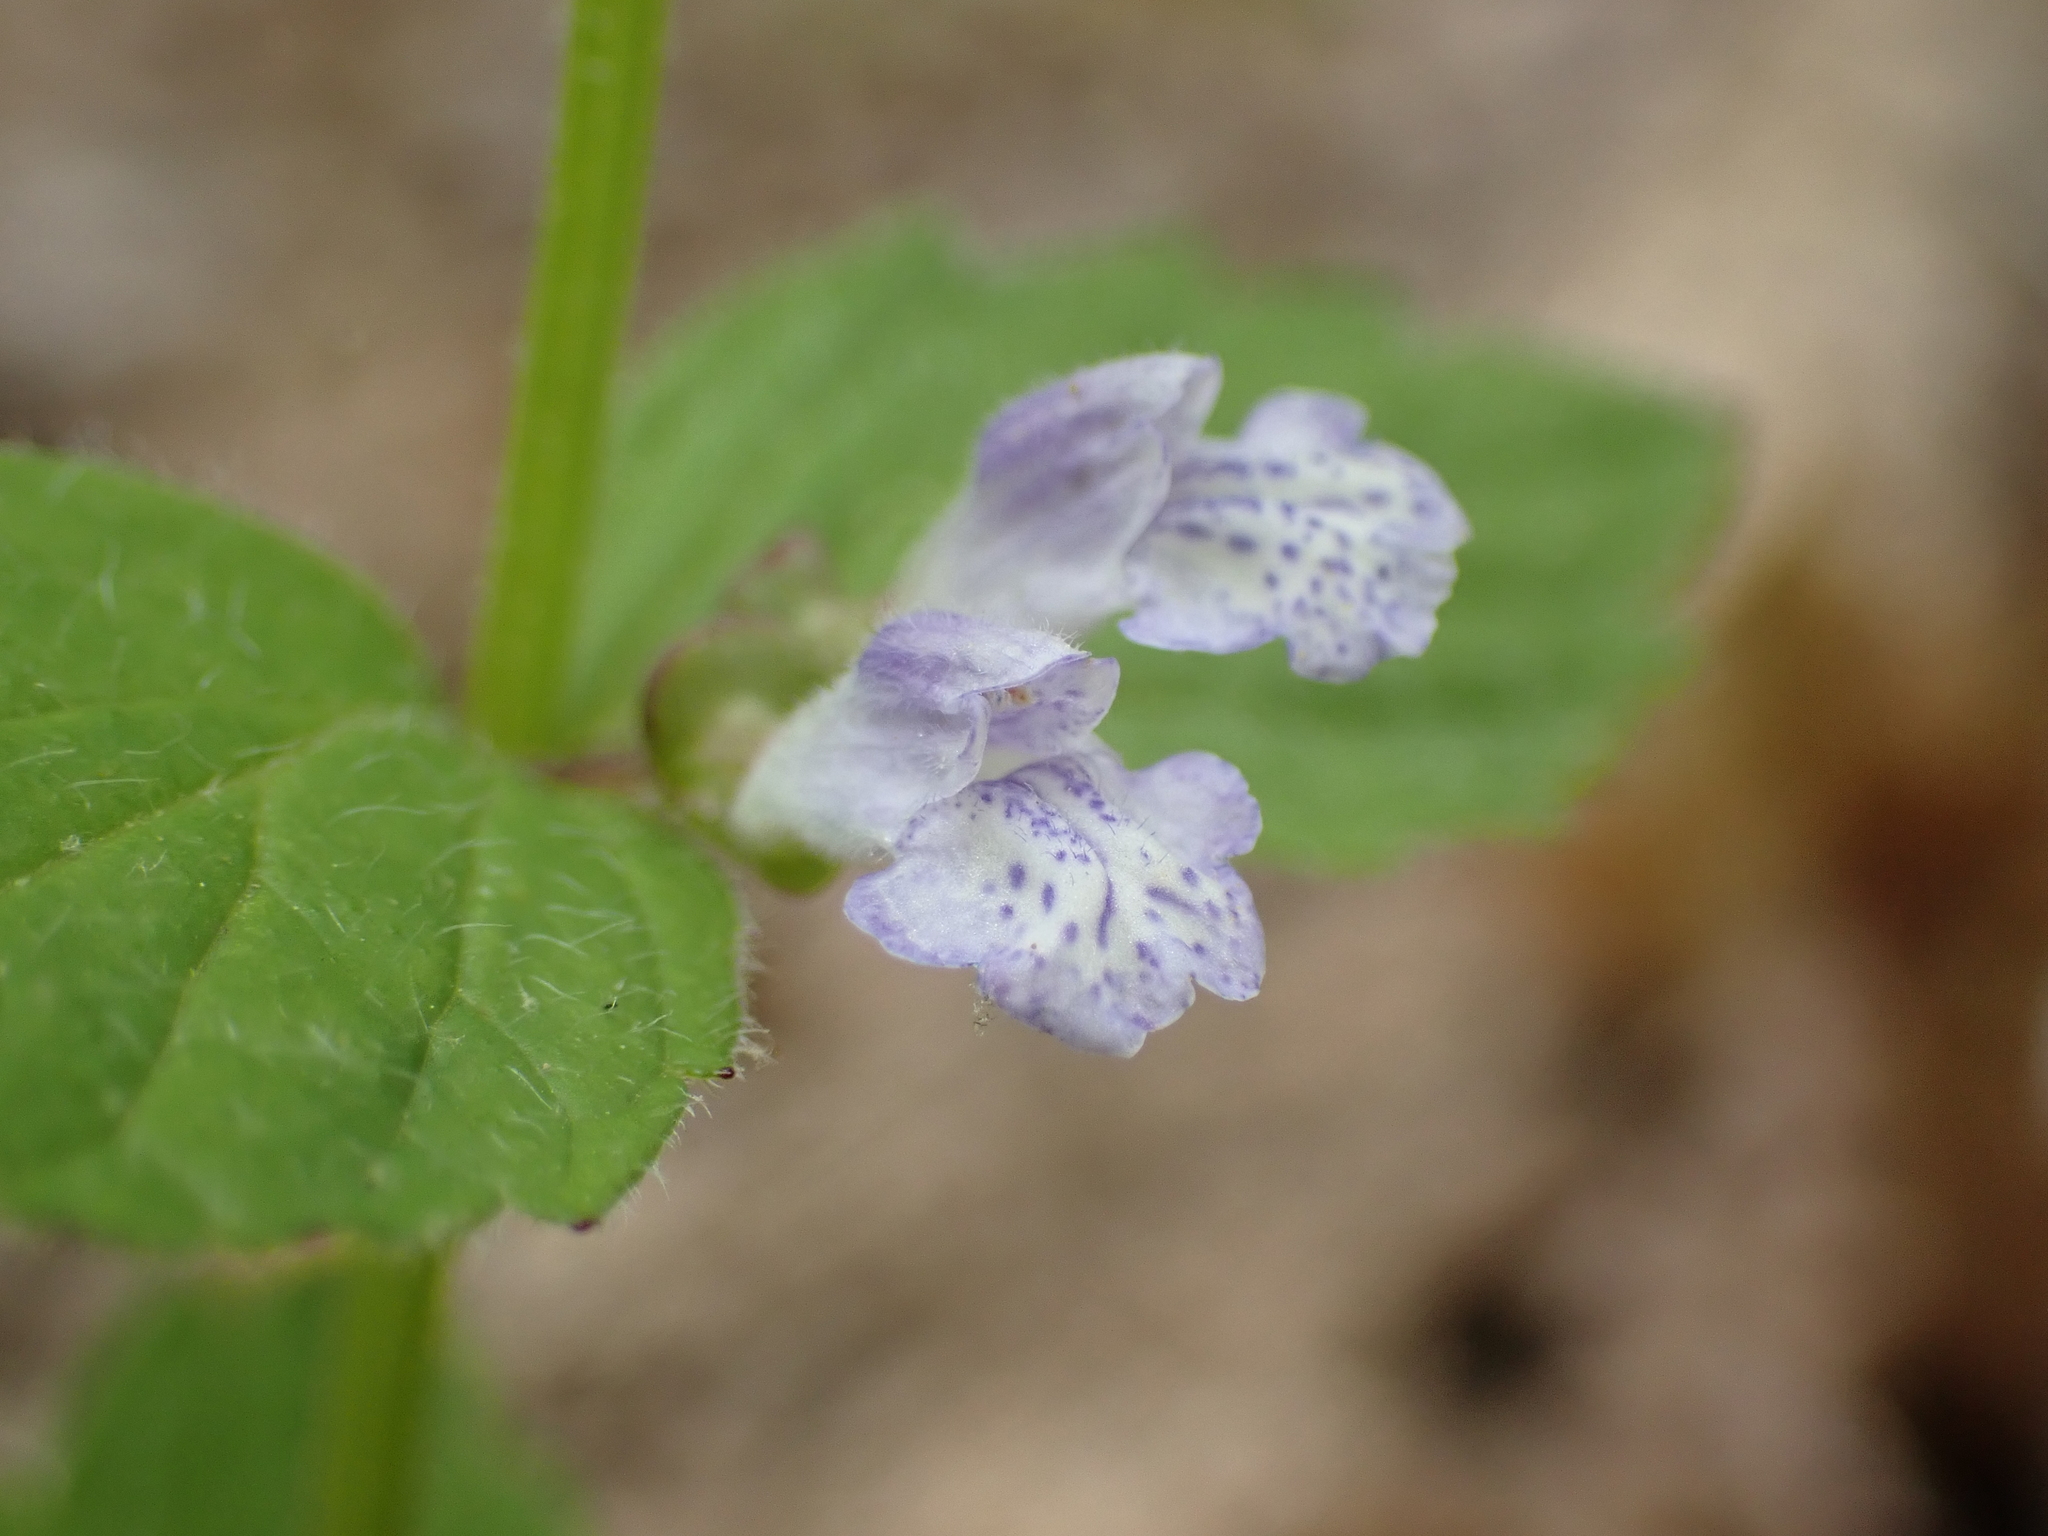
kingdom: Plantae
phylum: Tracheophyta
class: Magnoliopsida
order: Lamiales
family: Lamiaceae
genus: Scutellaria
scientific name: Scutellaria nervosa
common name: Bottomland skullcap
